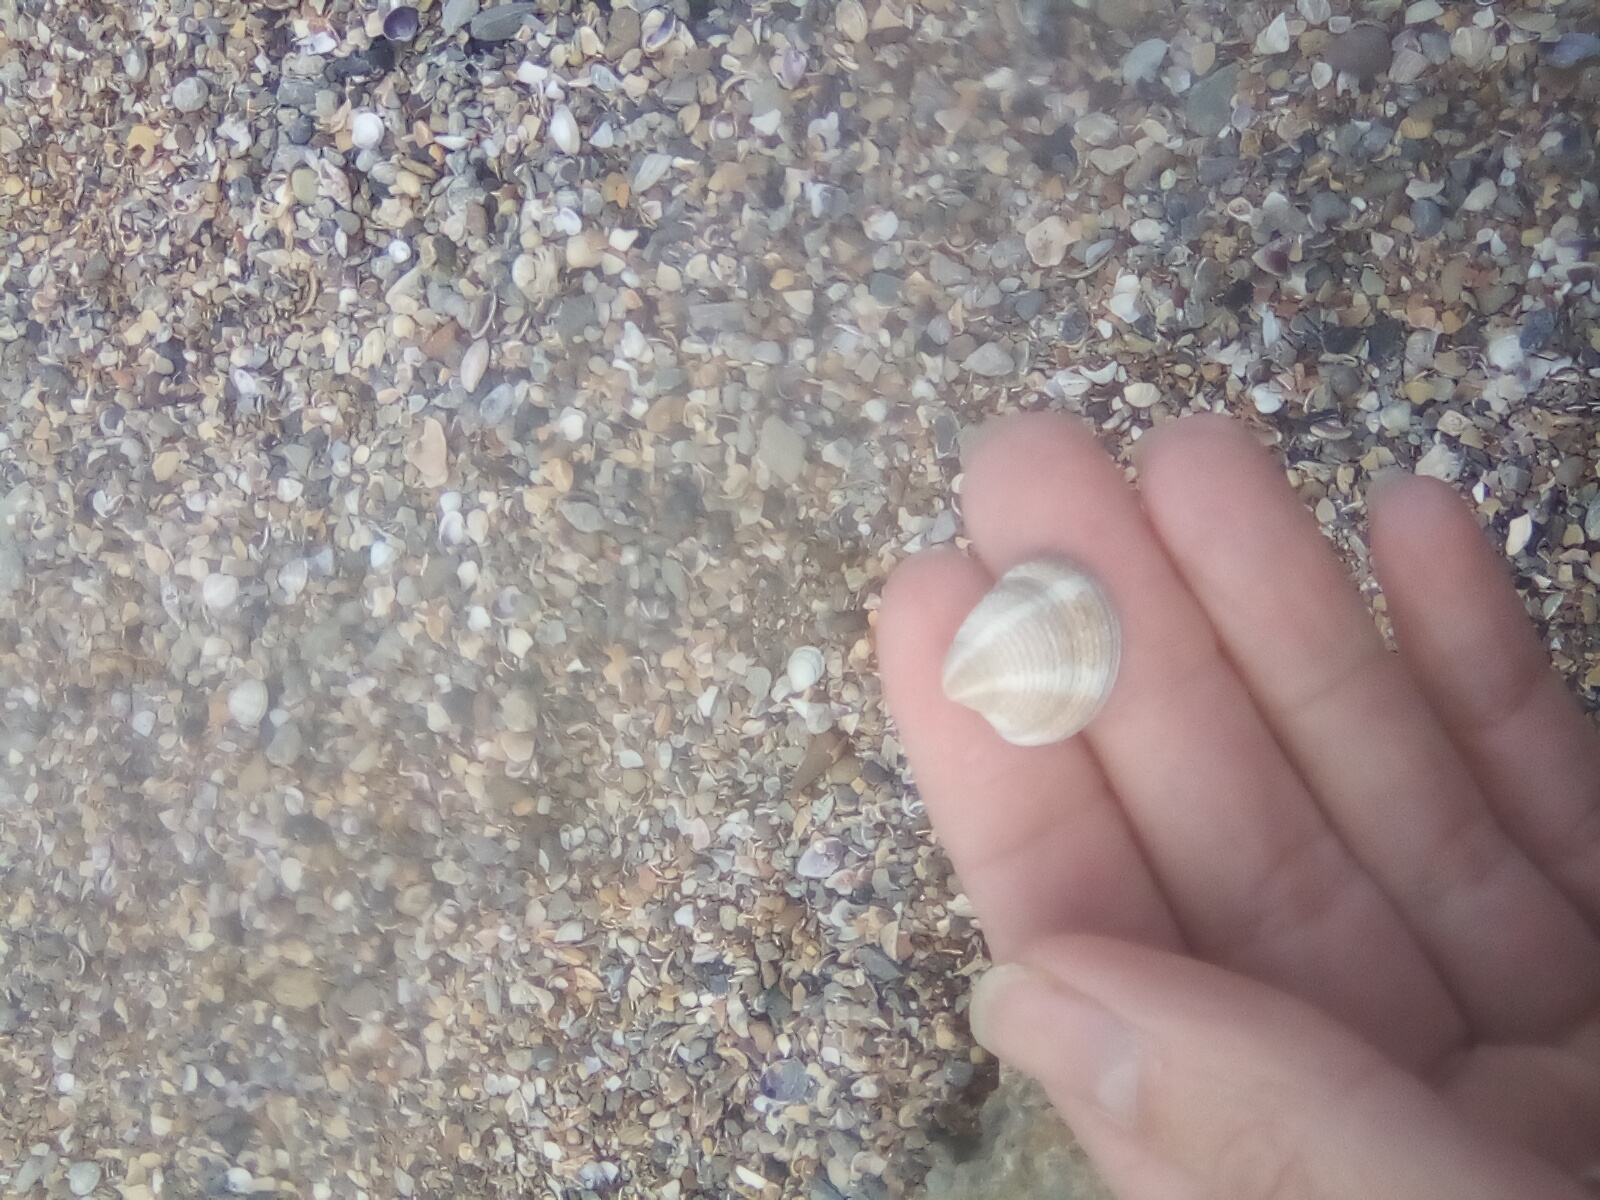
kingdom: Animalia
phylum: Mollusca
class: Bivalvia
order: Venerida
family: Veneridae
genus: Chamelea
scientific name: Chamelea gallina
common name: Chicken venus
